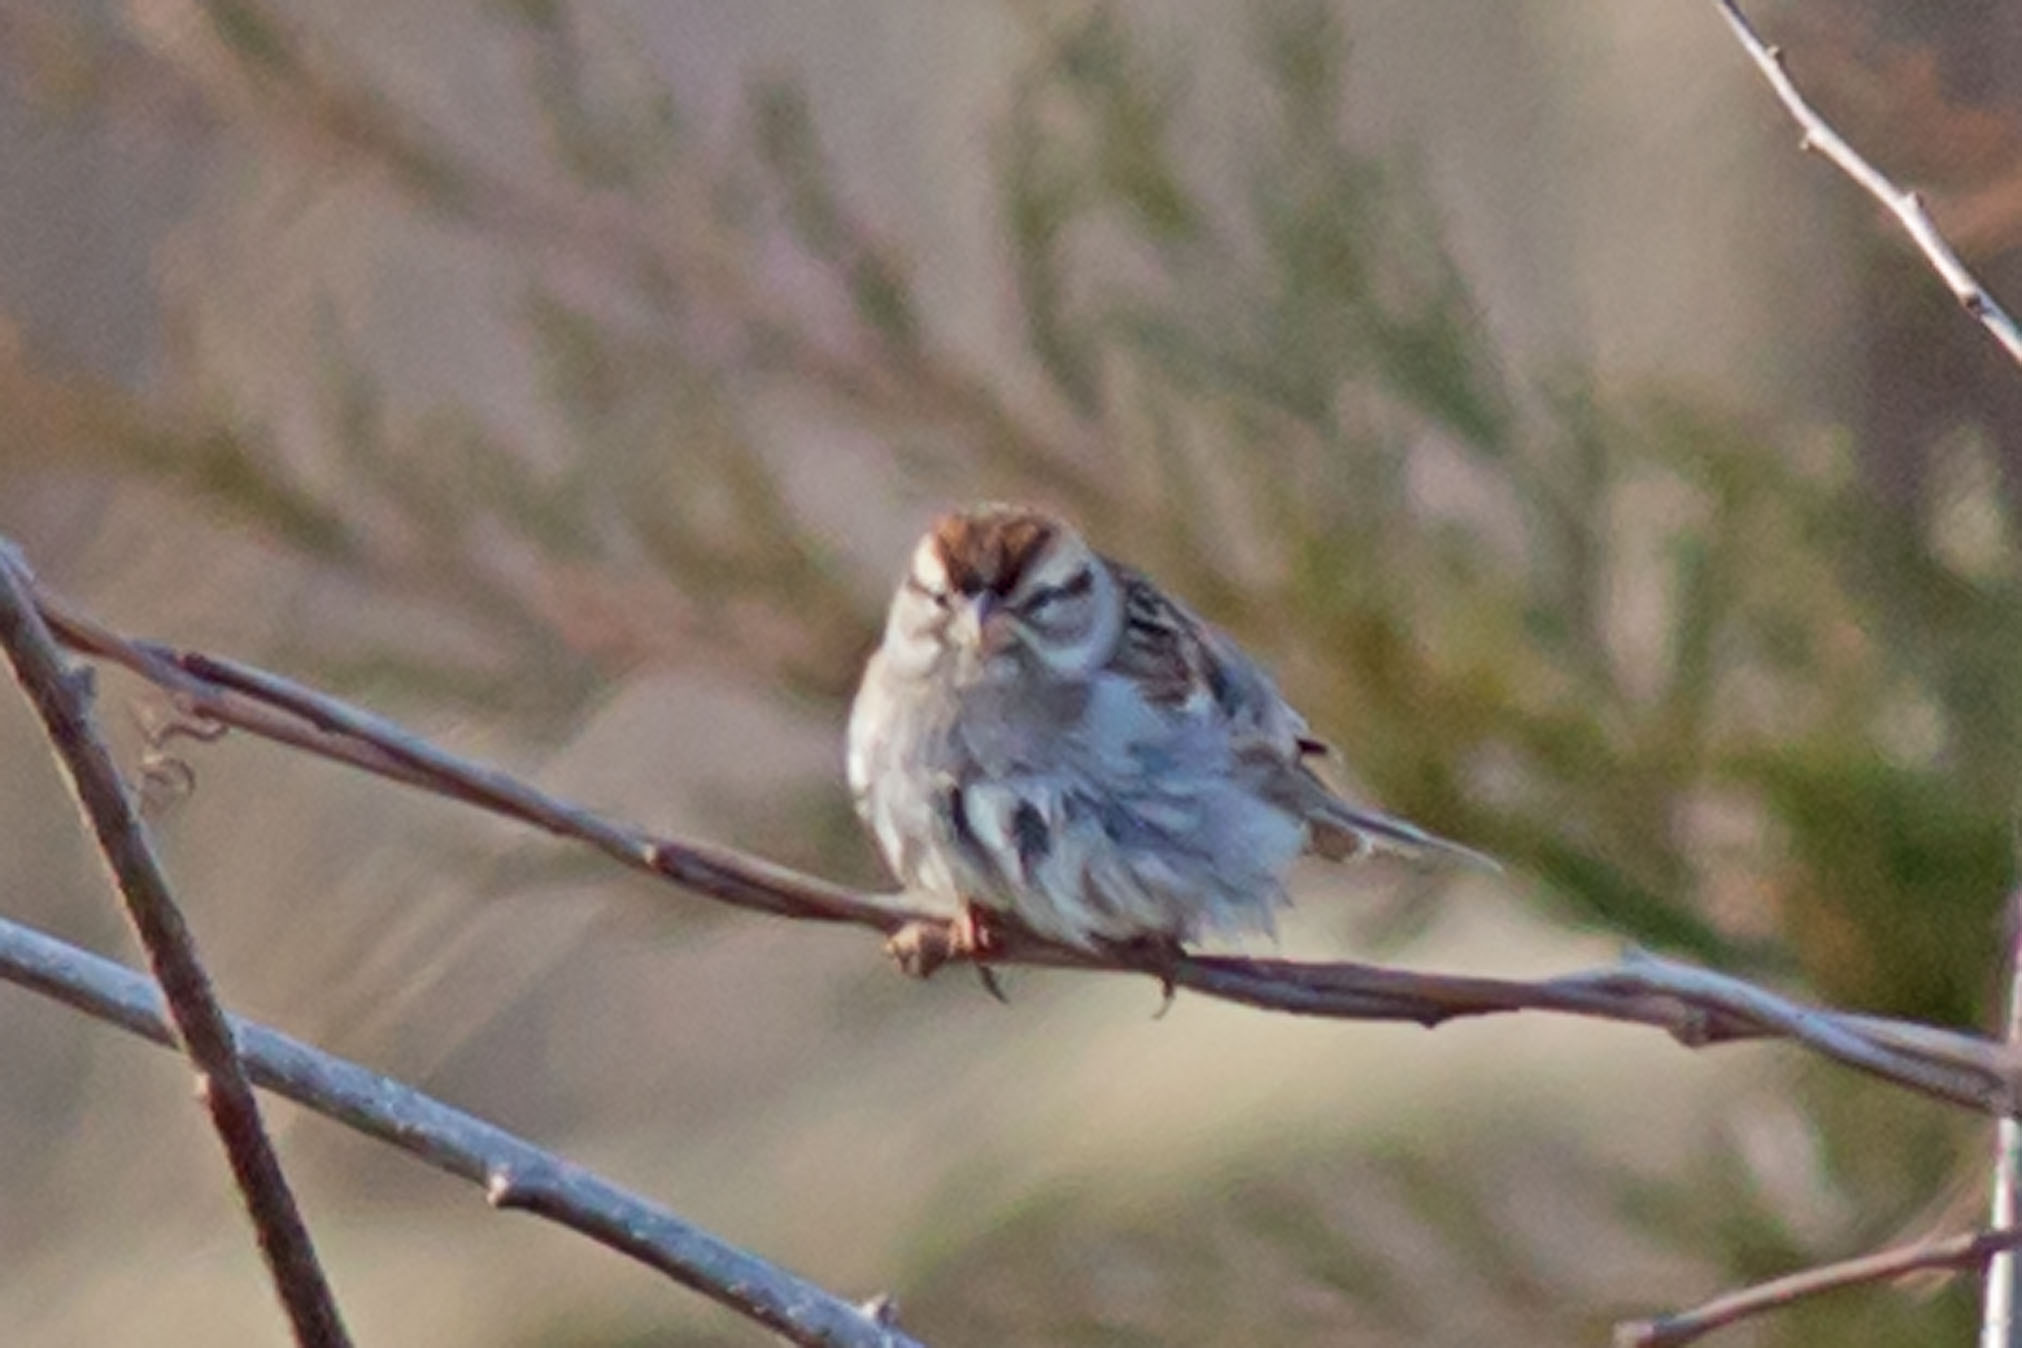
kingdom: Animalia
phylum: Chordata
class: Aves
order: Passeriformes
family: Passerellidae
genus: Spizella
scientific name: Spizella passerina
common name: Chipping sparrow
